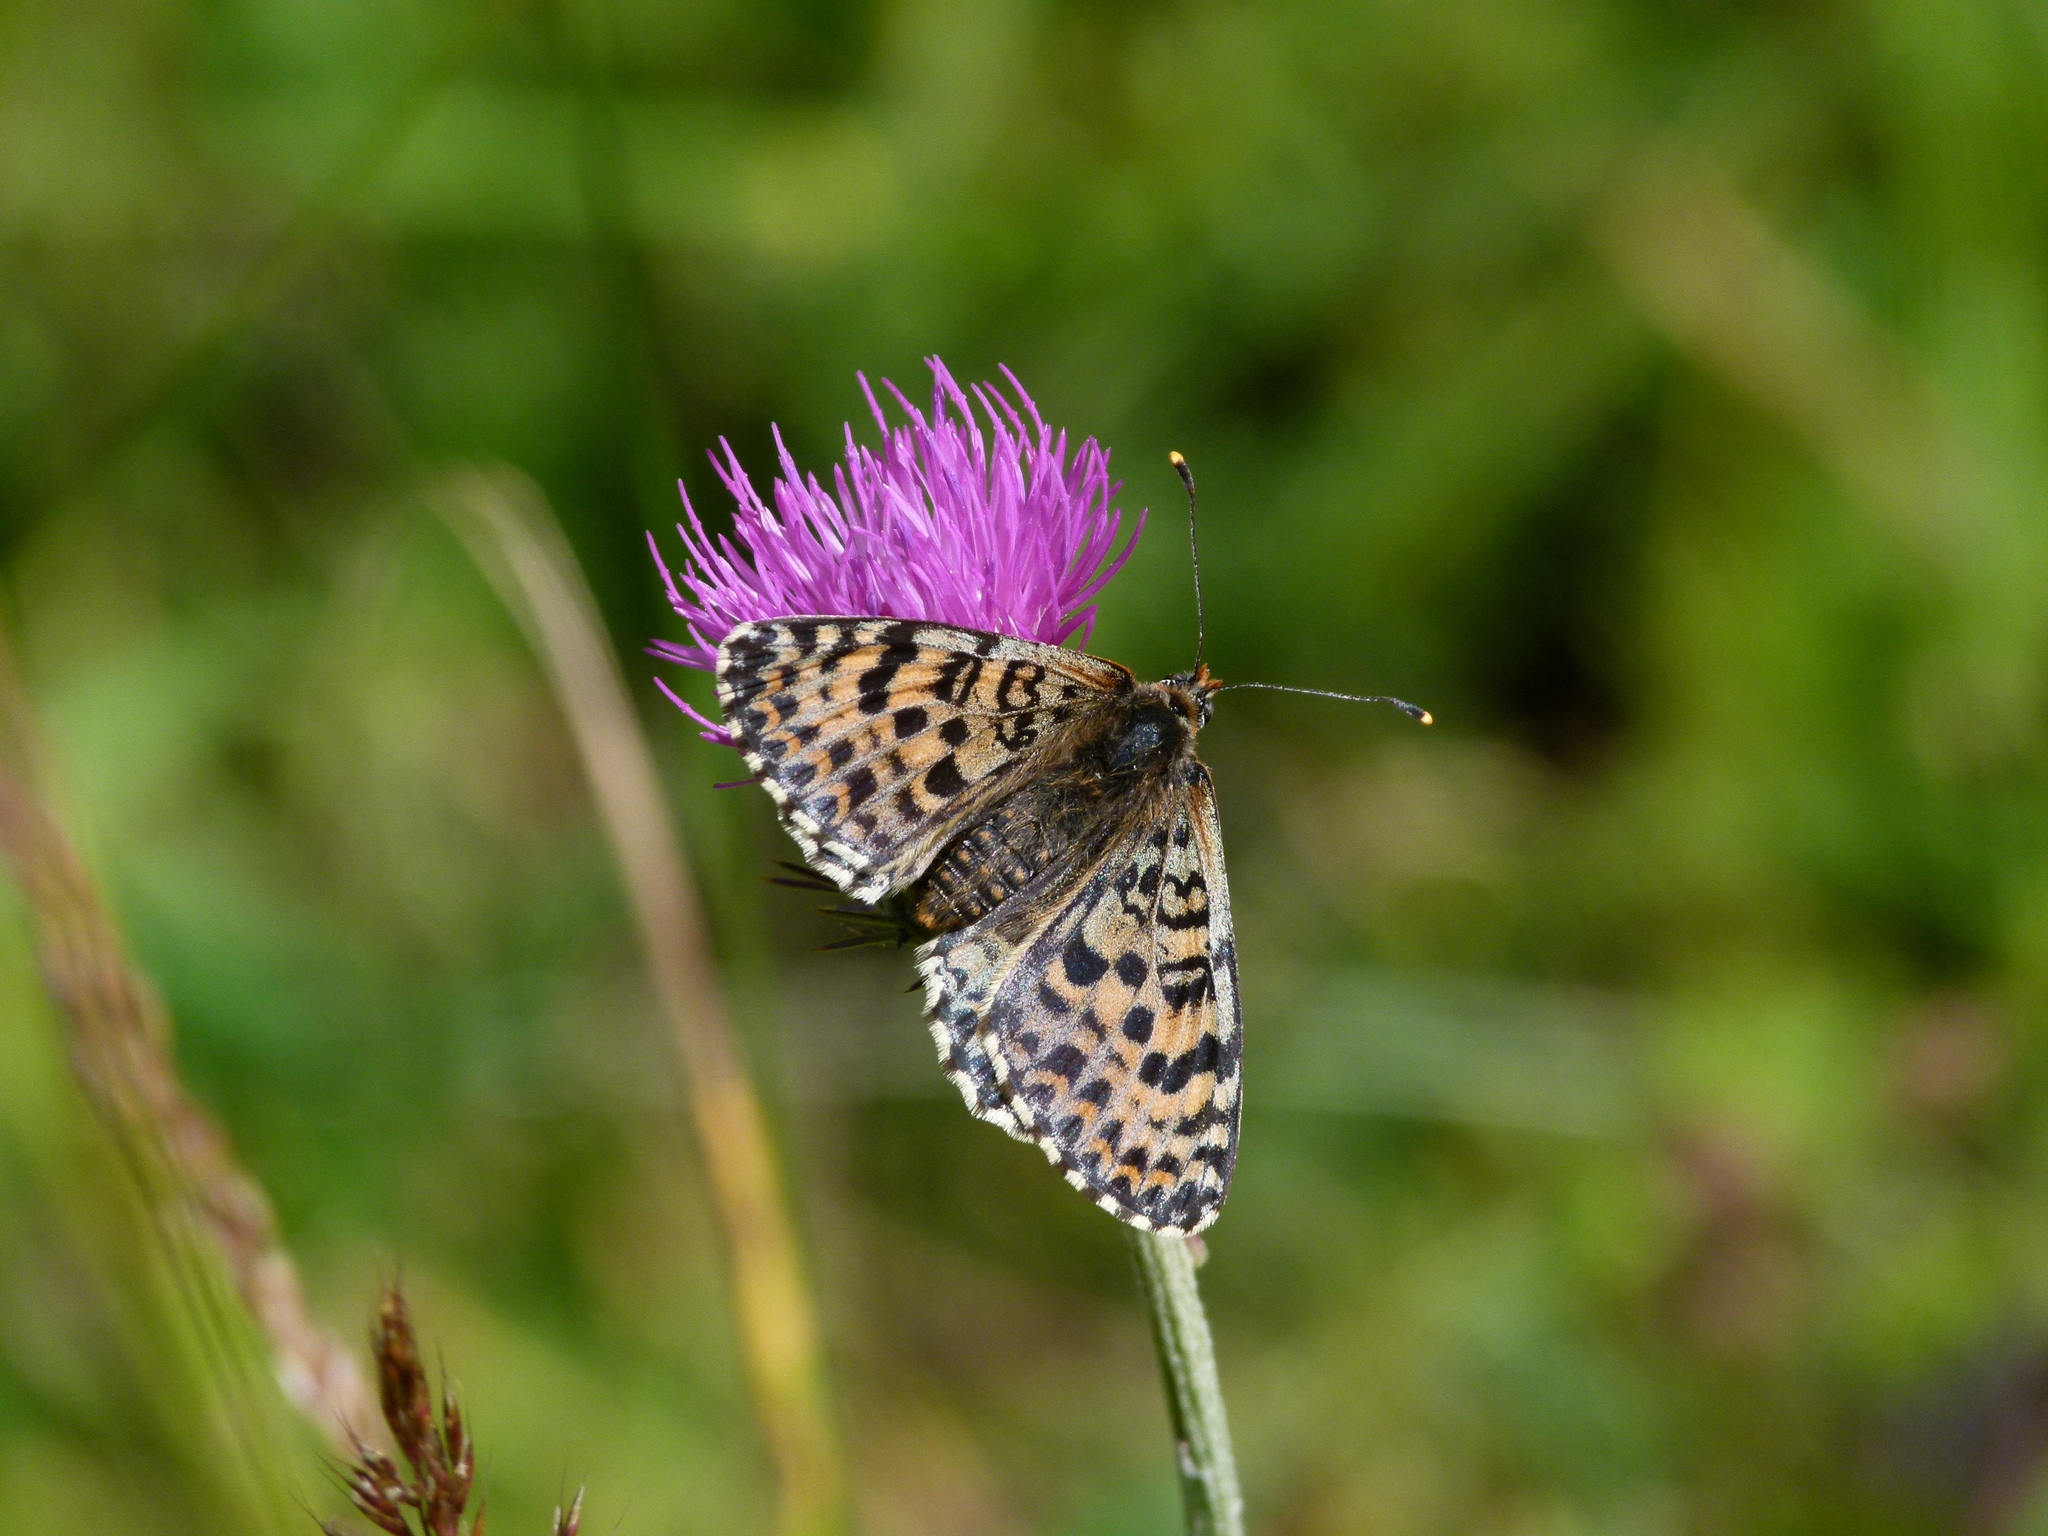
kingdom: Animalia
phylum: Arthropoda
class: Insecta
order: Lepidoptera
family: Nymphalidae
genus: Melitaea
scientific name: Melitaea didyma
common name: Spotted fritillary
